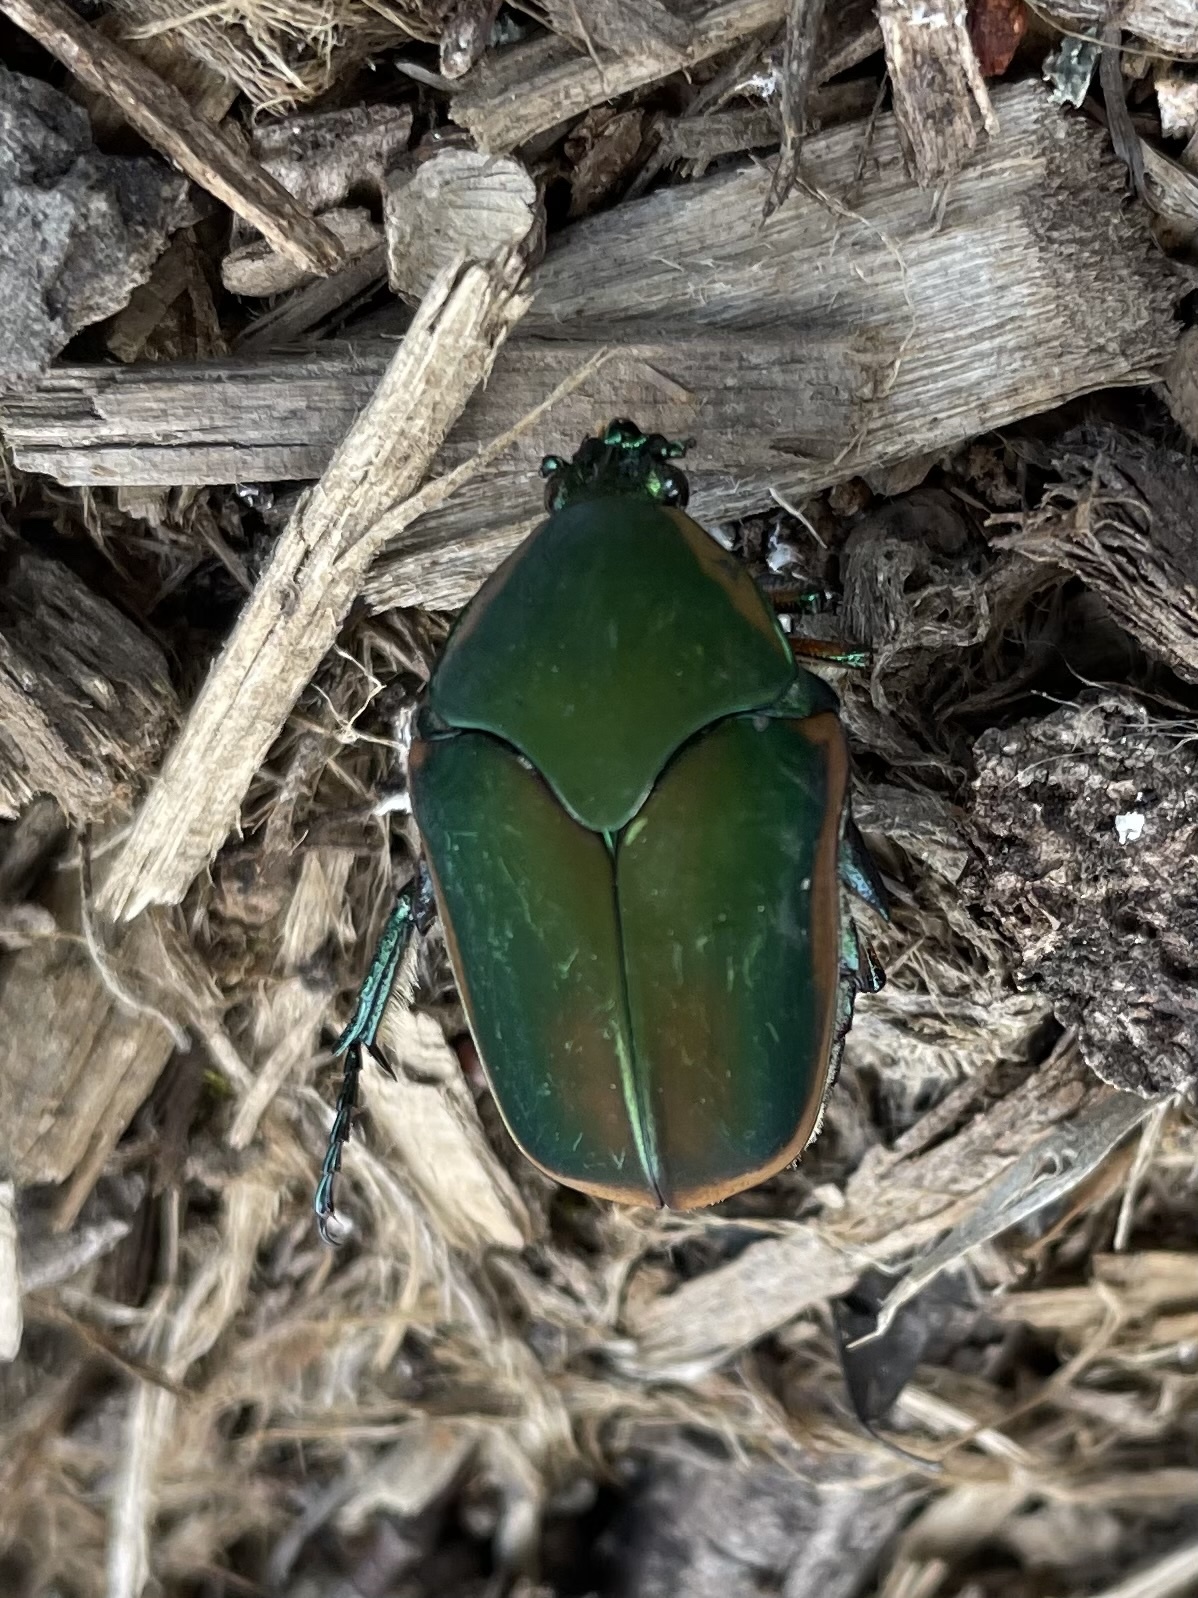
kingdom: Animalia
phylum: Arthropoda
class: Insecta
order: Coleoptera
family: Scarabaeidae
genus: Cotinis
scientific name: Cotinis nitida
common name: Common green june beetle
